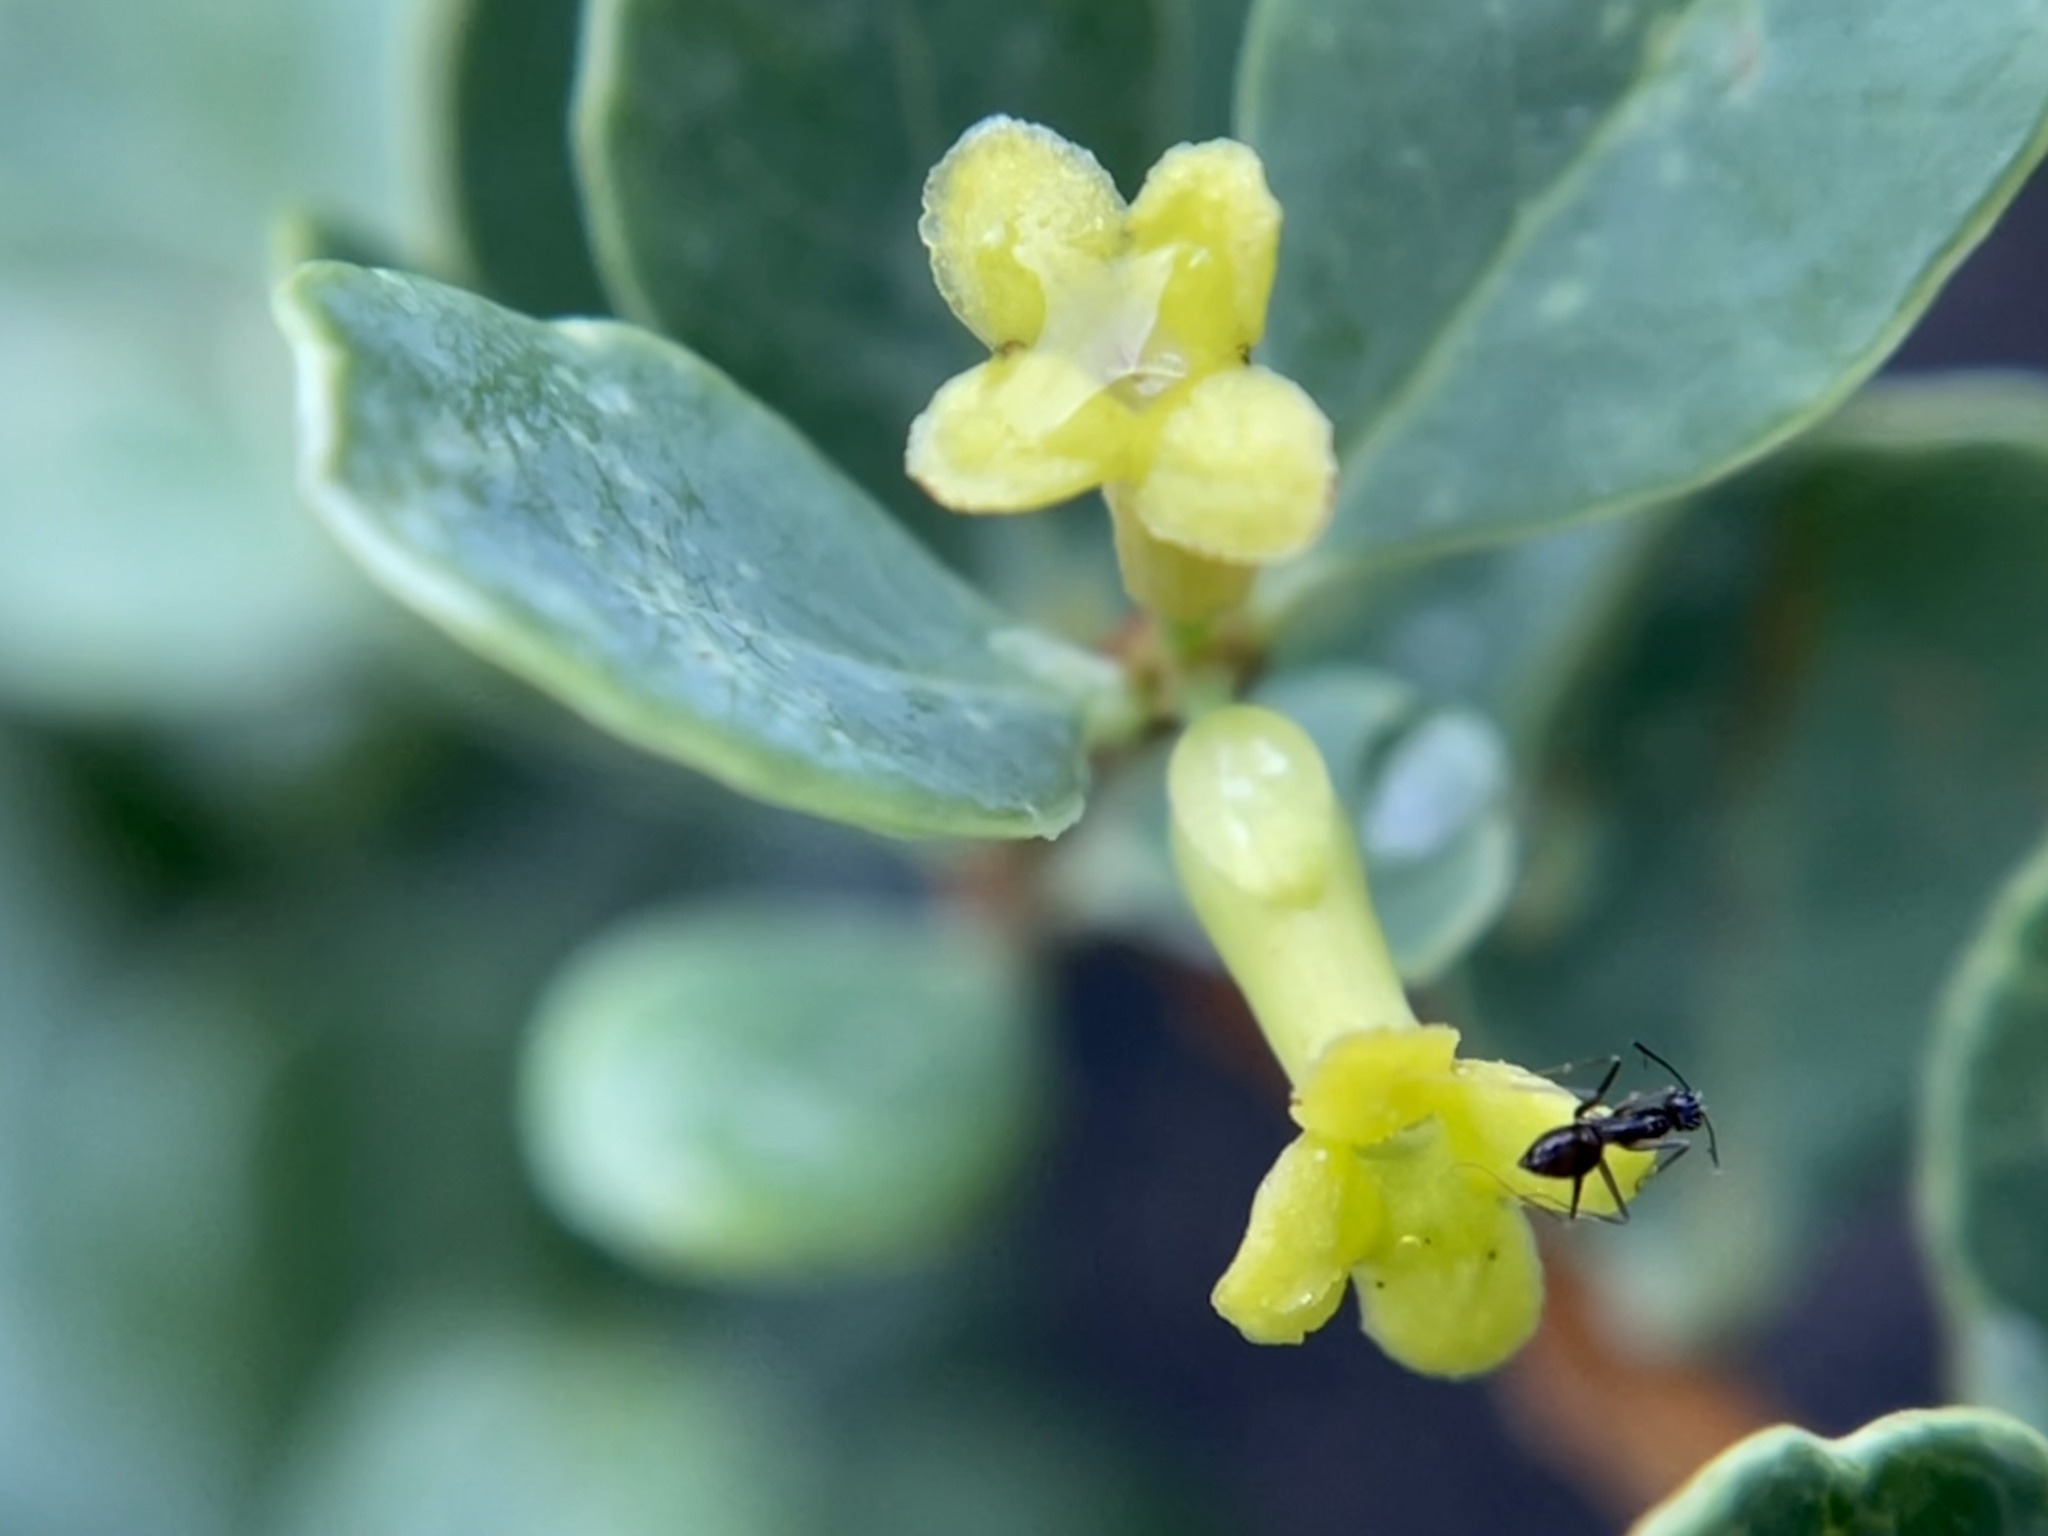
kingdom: Animalia
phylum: Arthropoda
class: Insecta
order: Hymenoptera
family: Formicidae
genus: Paratrechina
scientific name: Paratrechina longicornis
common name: Longhorned crazy ant
